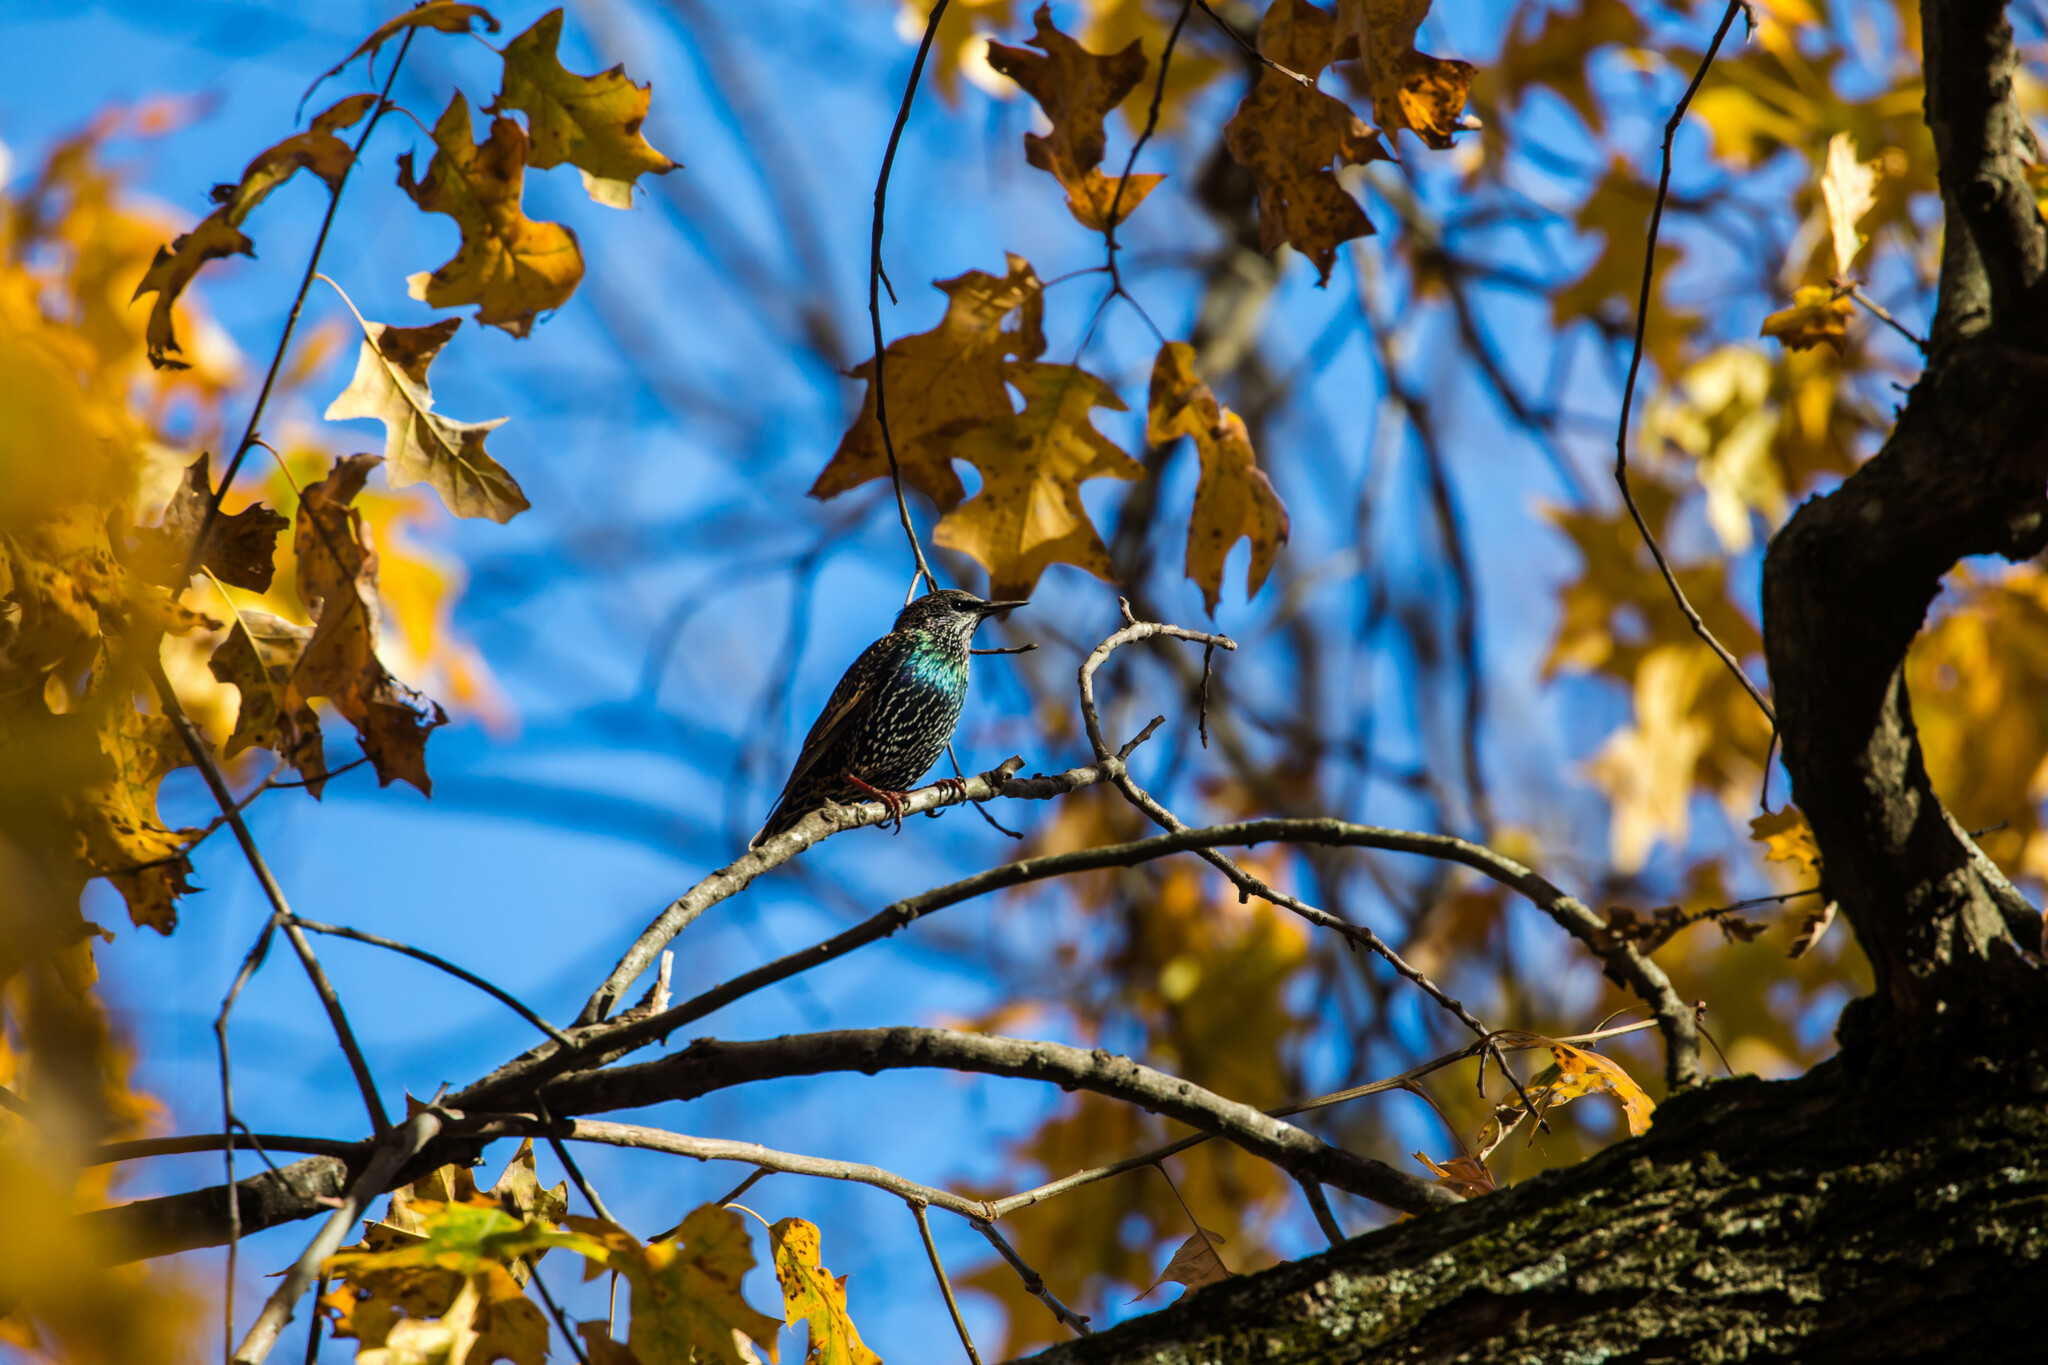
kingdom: Animalia
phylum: Chordata
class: Aves
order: Passeriformes
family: Sturnidae
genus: Sturnus
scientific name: Sturnus vulgaris
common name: Common starling
